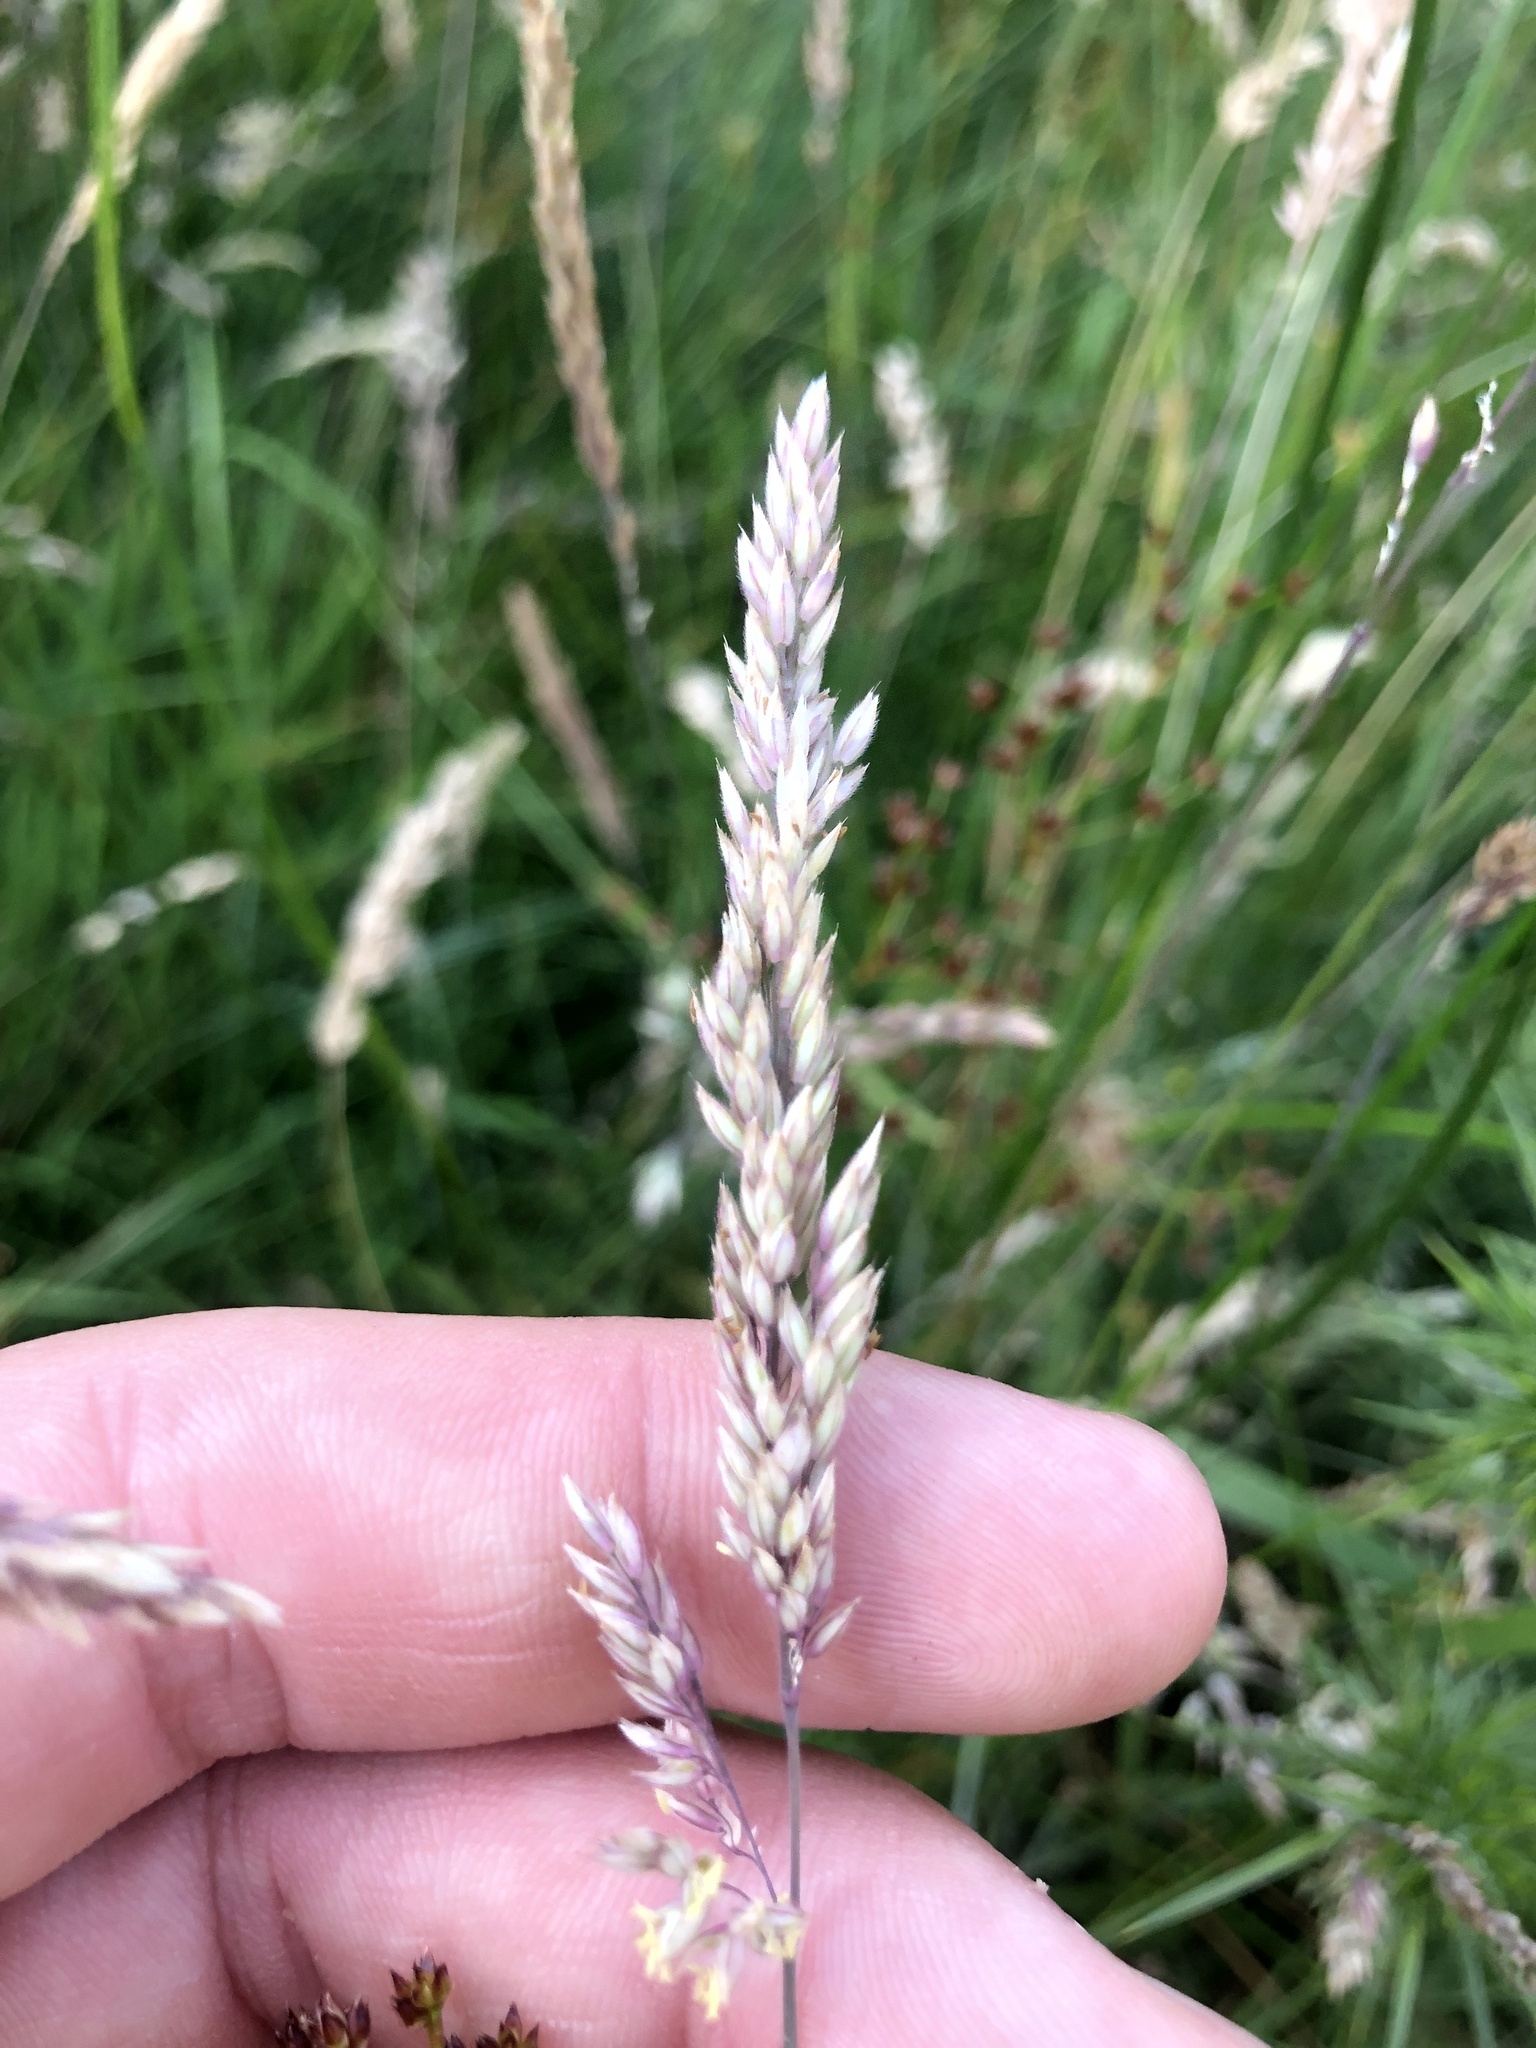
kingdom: Plantae
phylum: Tracheophyta
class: Liliopsida
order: Poales
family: Poaceae
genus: Holcus
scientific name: Holcus lanatus
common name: Yorkshire-fog
